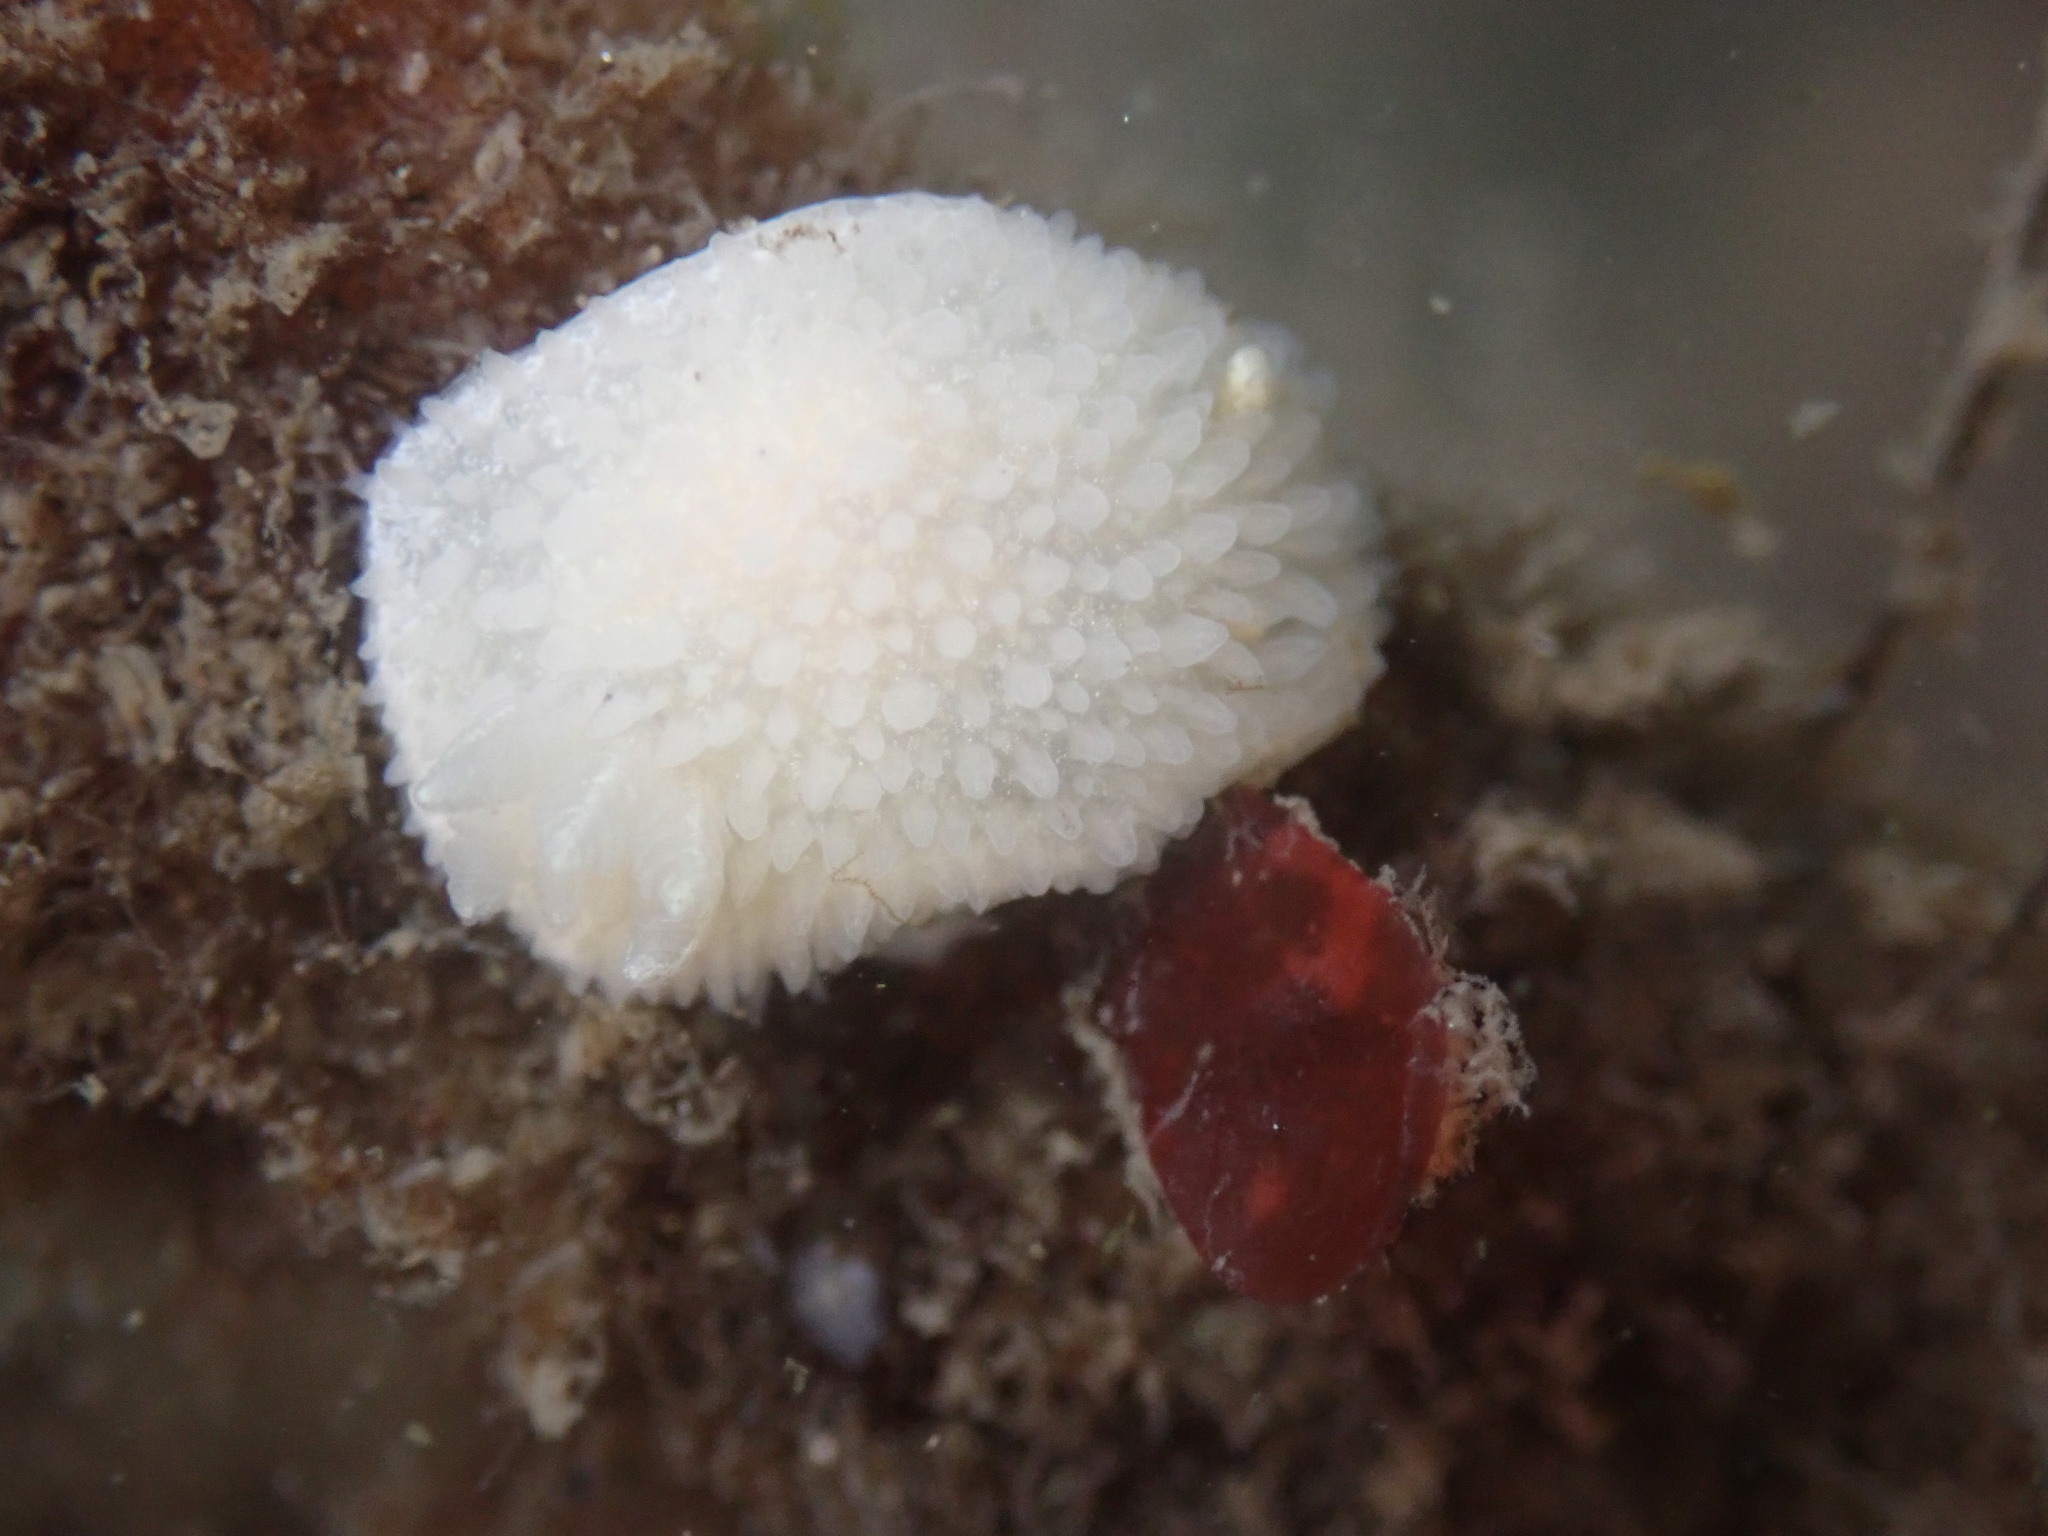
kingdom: Animalia
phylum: Mollusca
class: Gastropoda
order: Nudibranchia
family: Calycidorididae
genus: Diaphorodoris
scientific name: Diaphorodoris lirulatocauda
